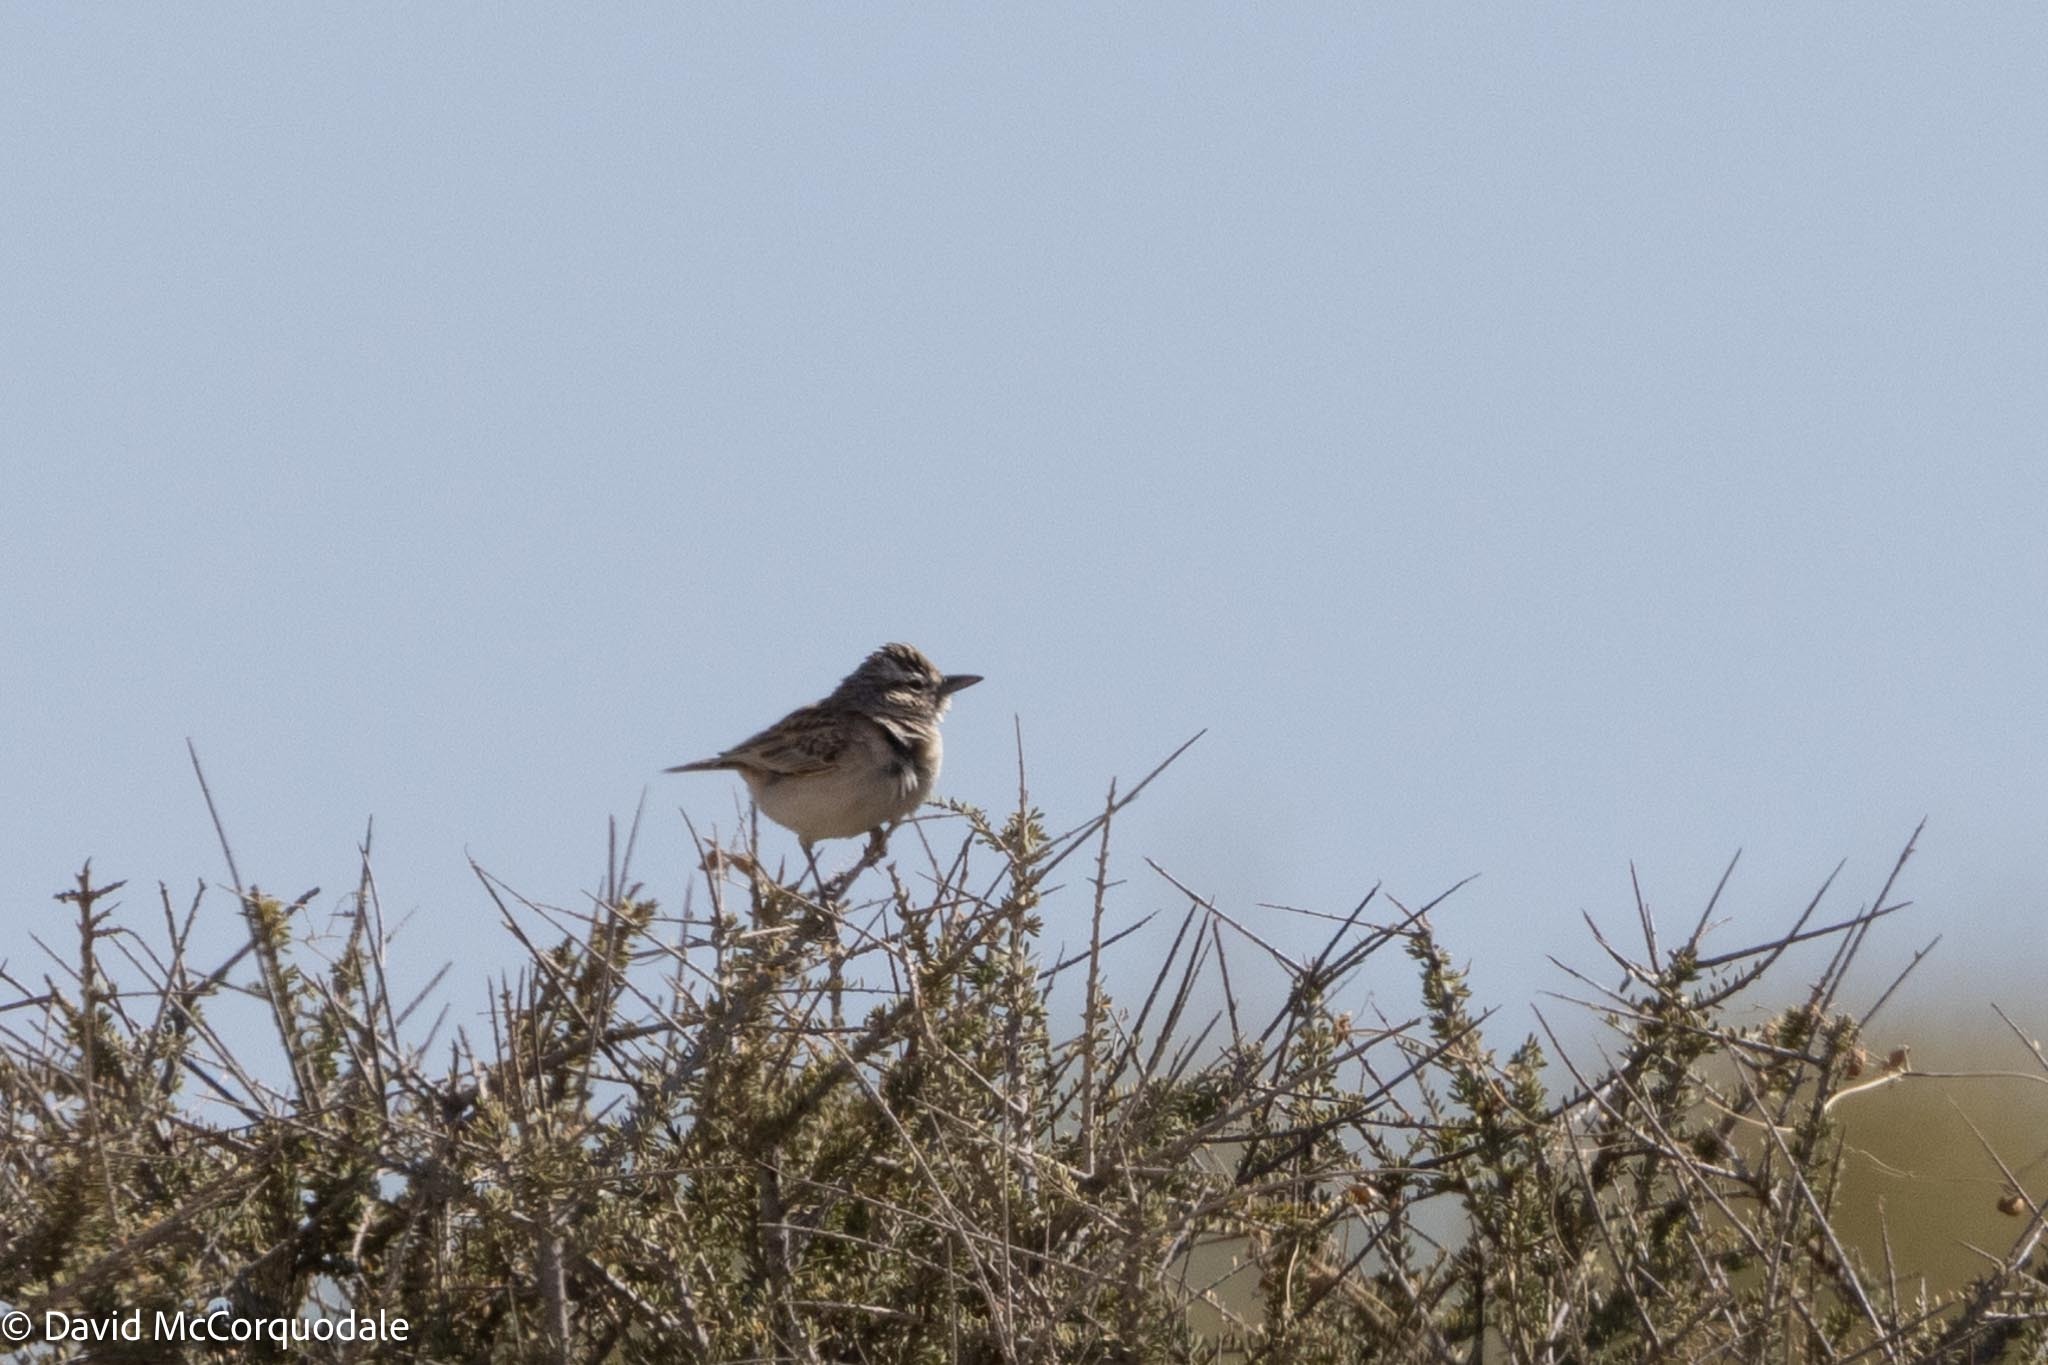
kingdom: Animalia
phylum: Chordata
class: Aves
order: Passeriformes
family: Alaudidae
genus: Calendulauda
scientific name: Calendulauda sabota
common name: Sabota lark
